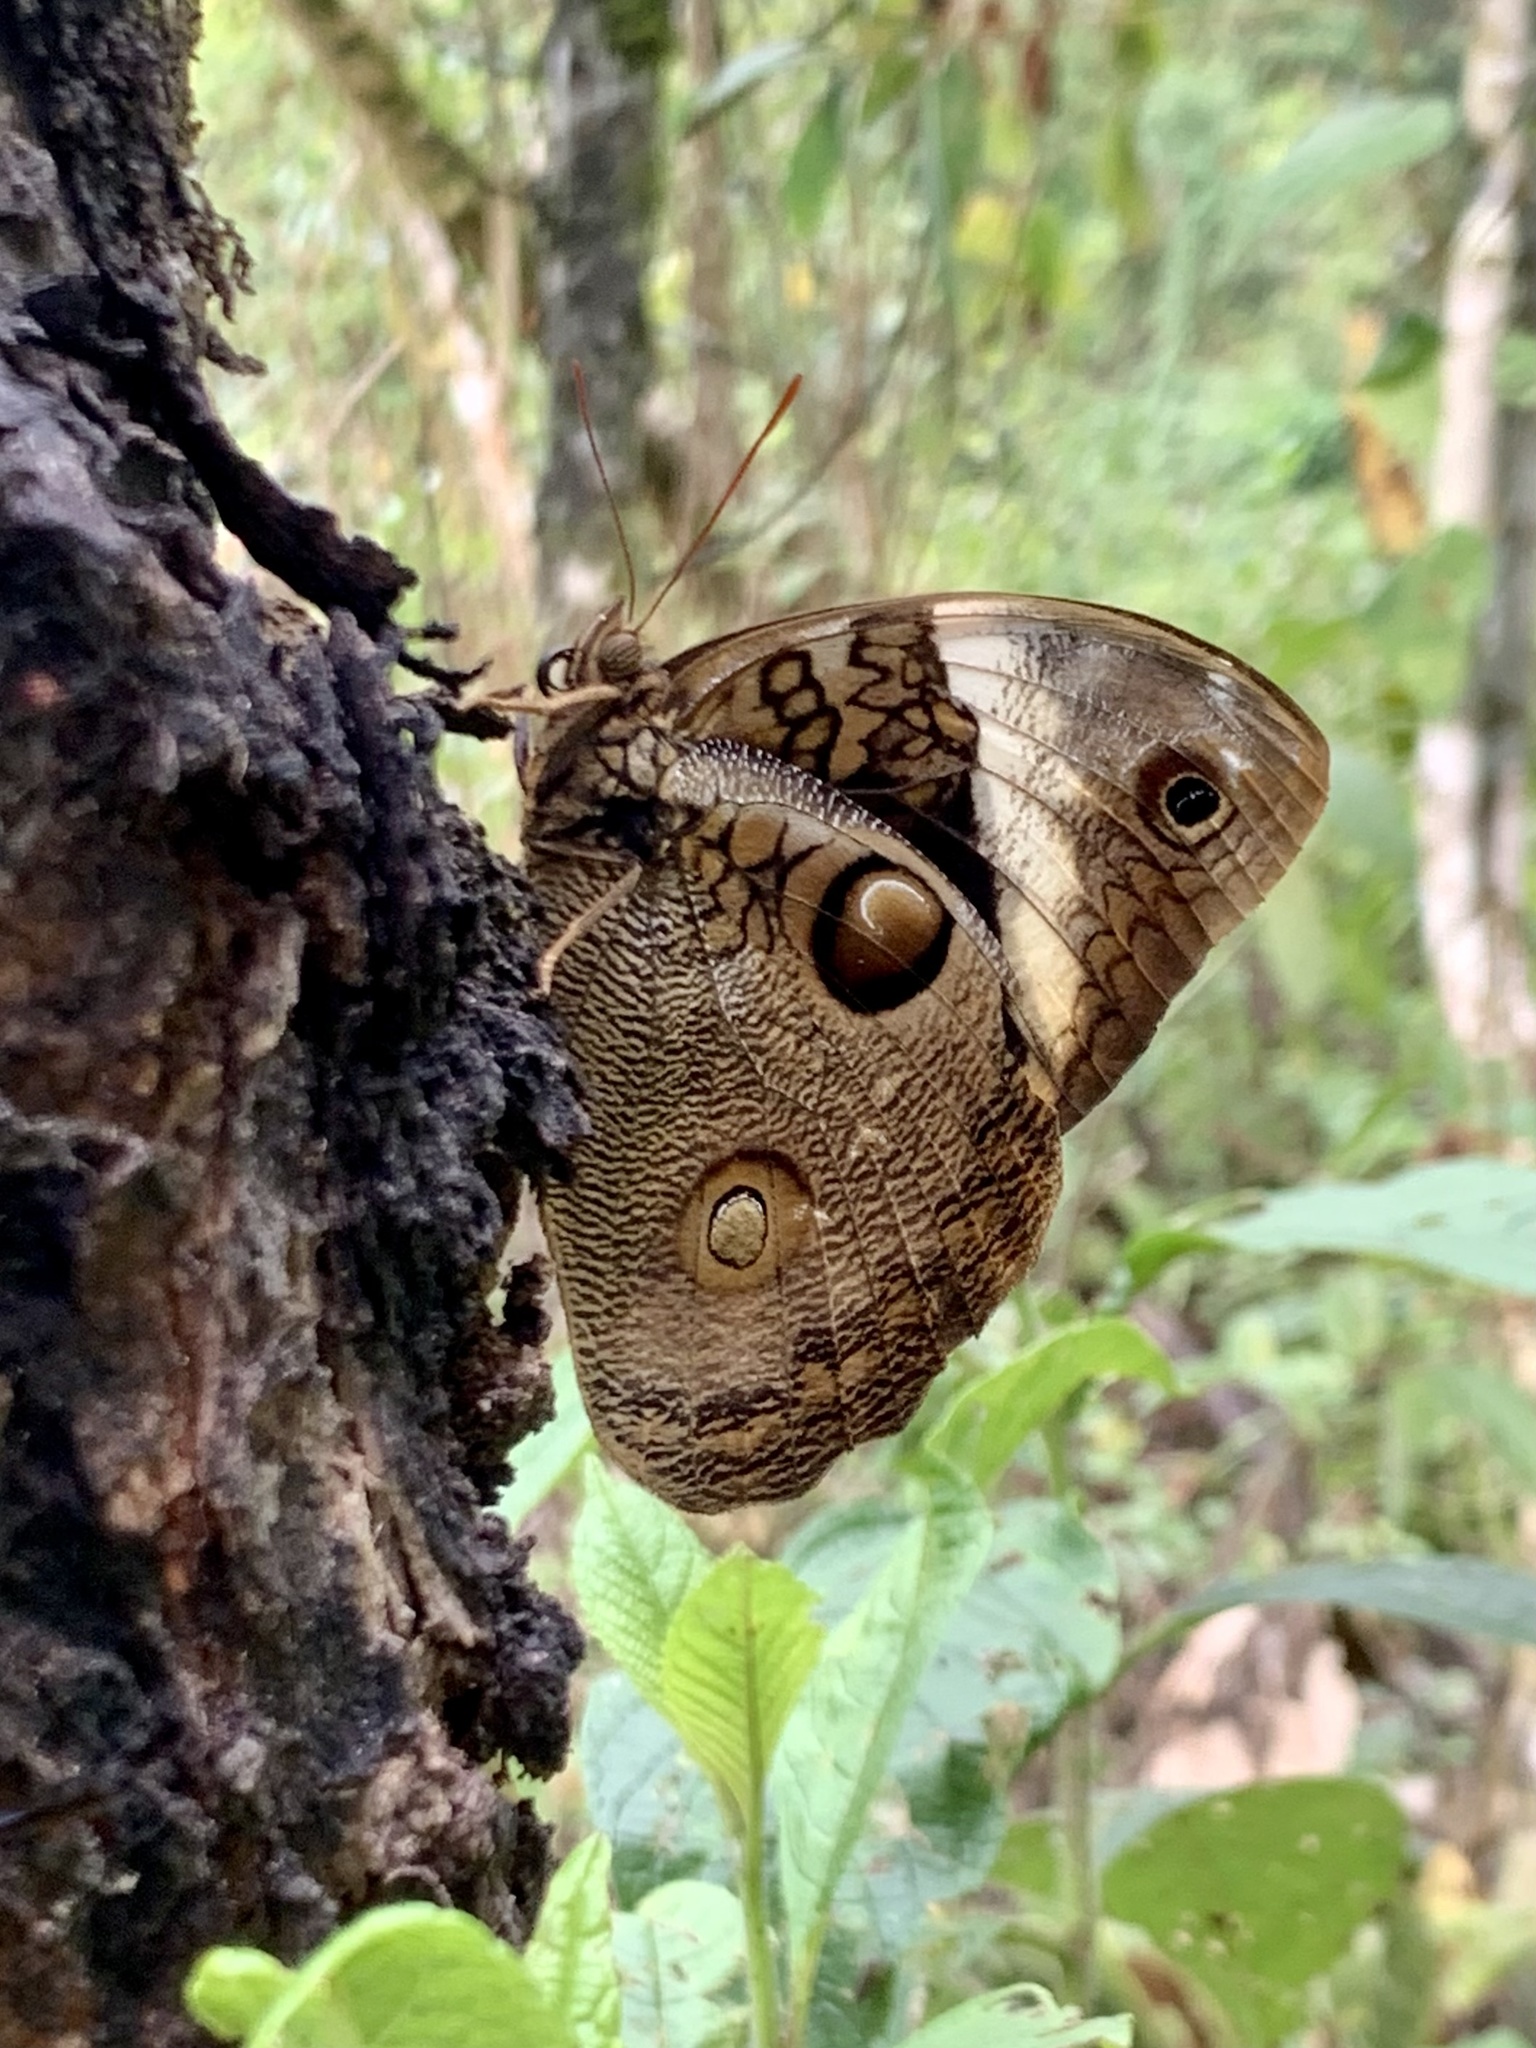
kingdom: Animalia
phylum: Arthropoda
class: Insecta
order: Lepidoptera
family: Nymphalidae
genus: Opsiphanes
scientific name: Opsiphanes bogotanus
